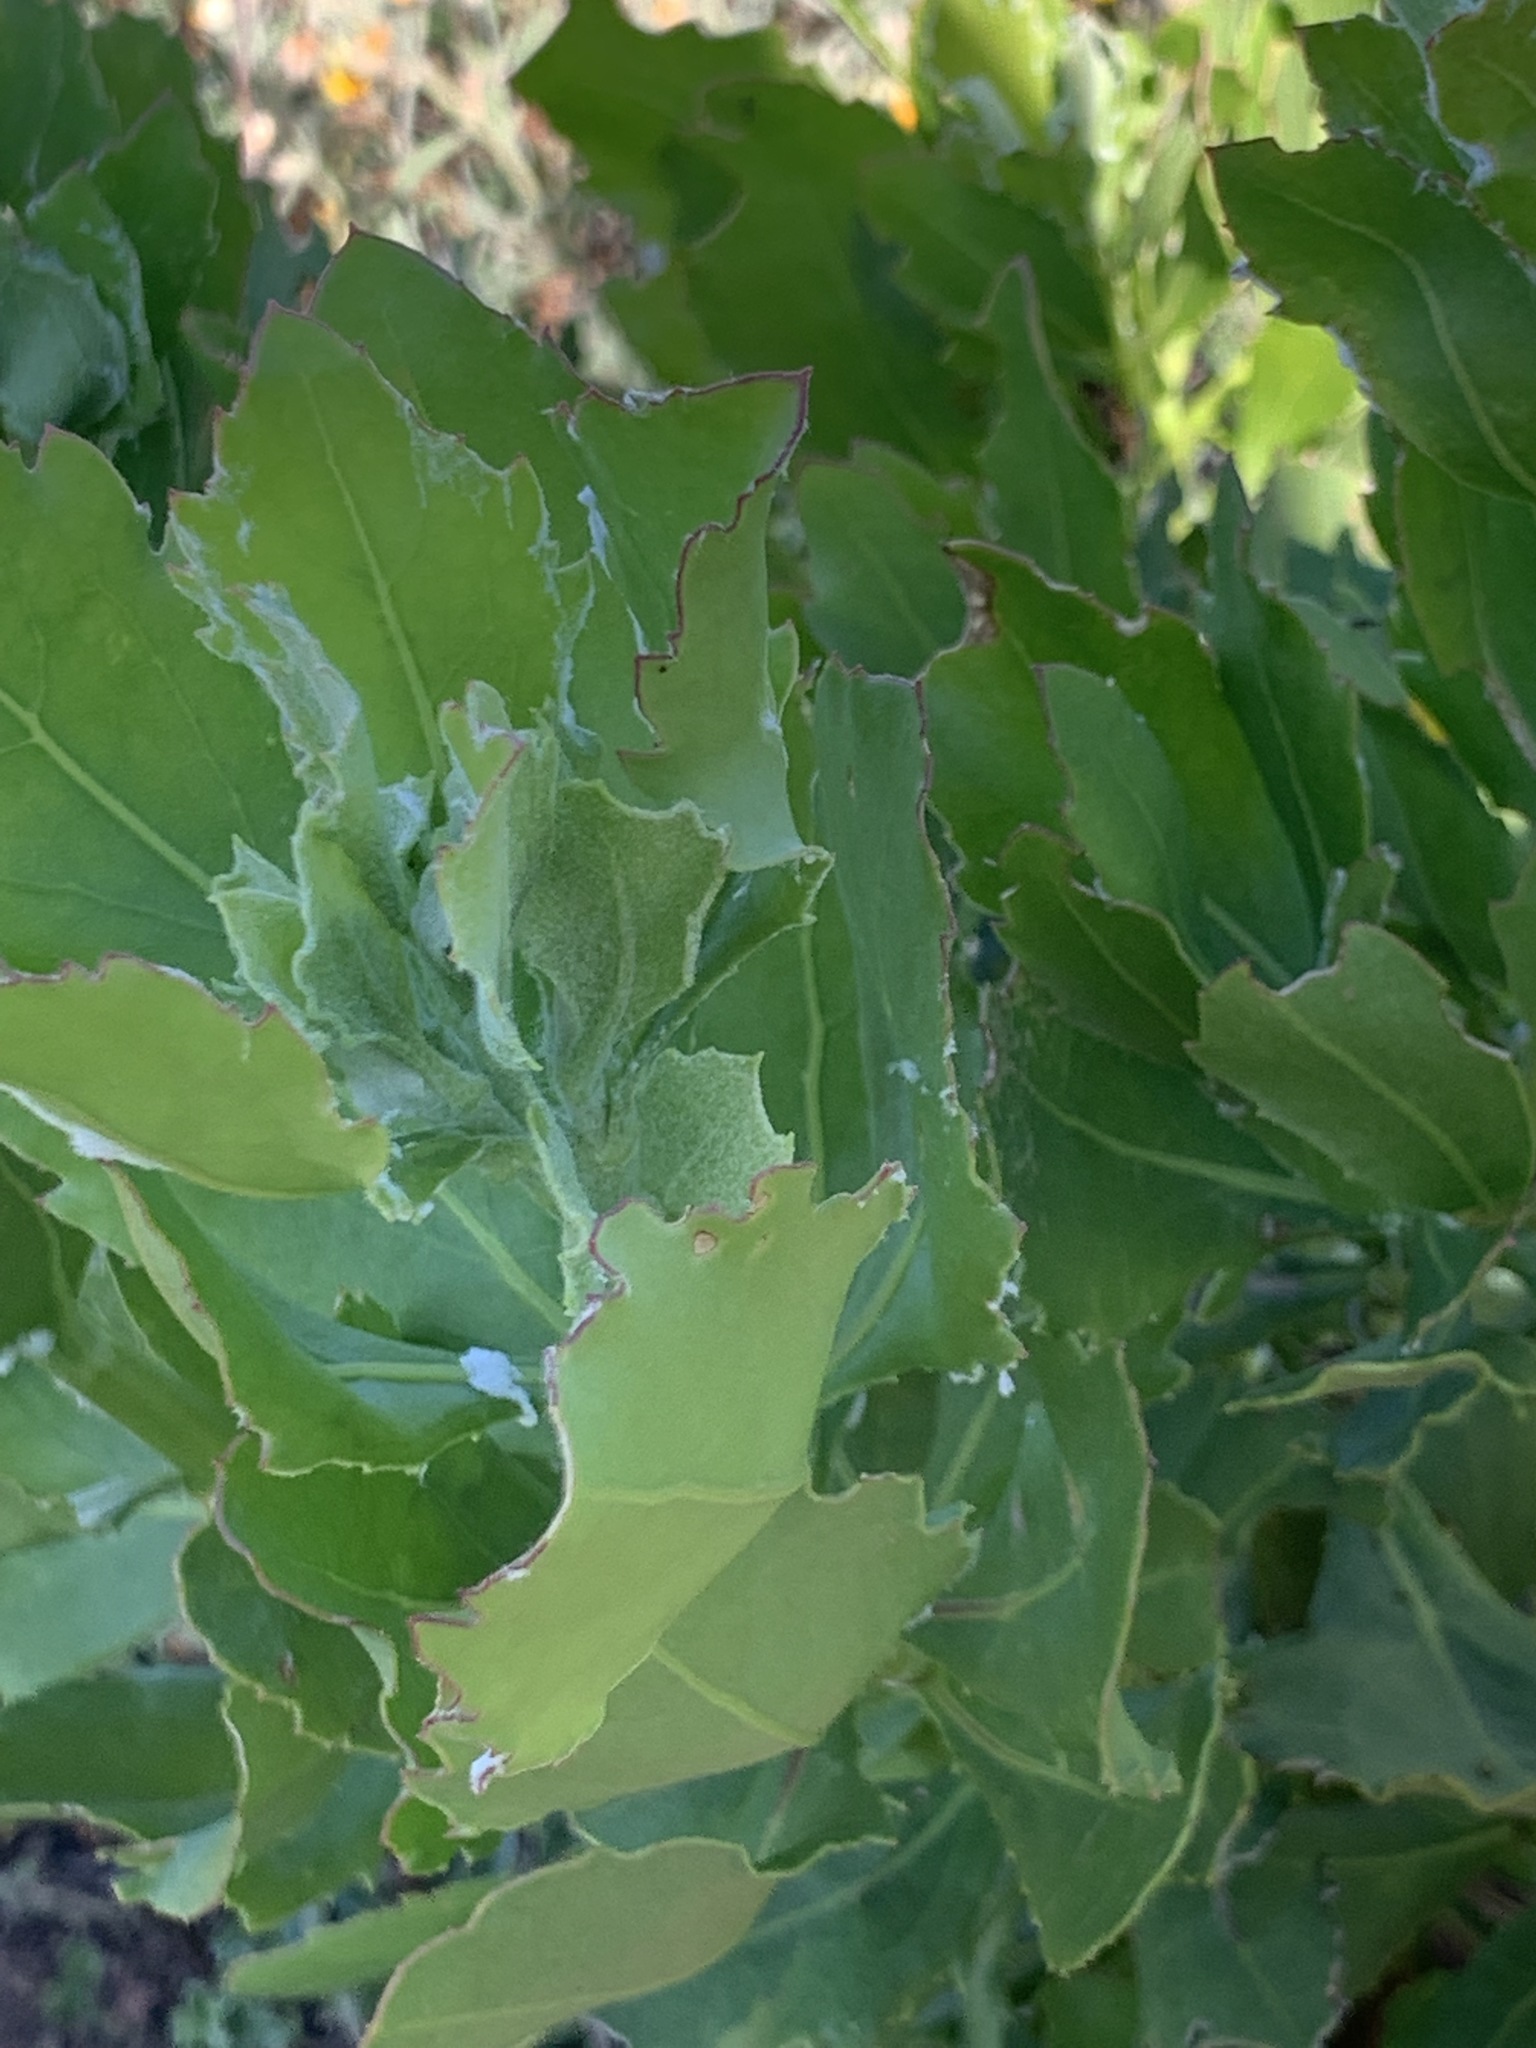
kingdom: Plantae
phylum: Tracheophyta
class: Magnoliopsida
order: Asterales
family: Asteraceae
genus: Osteospermum
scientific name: Osteospermum moniliferum
